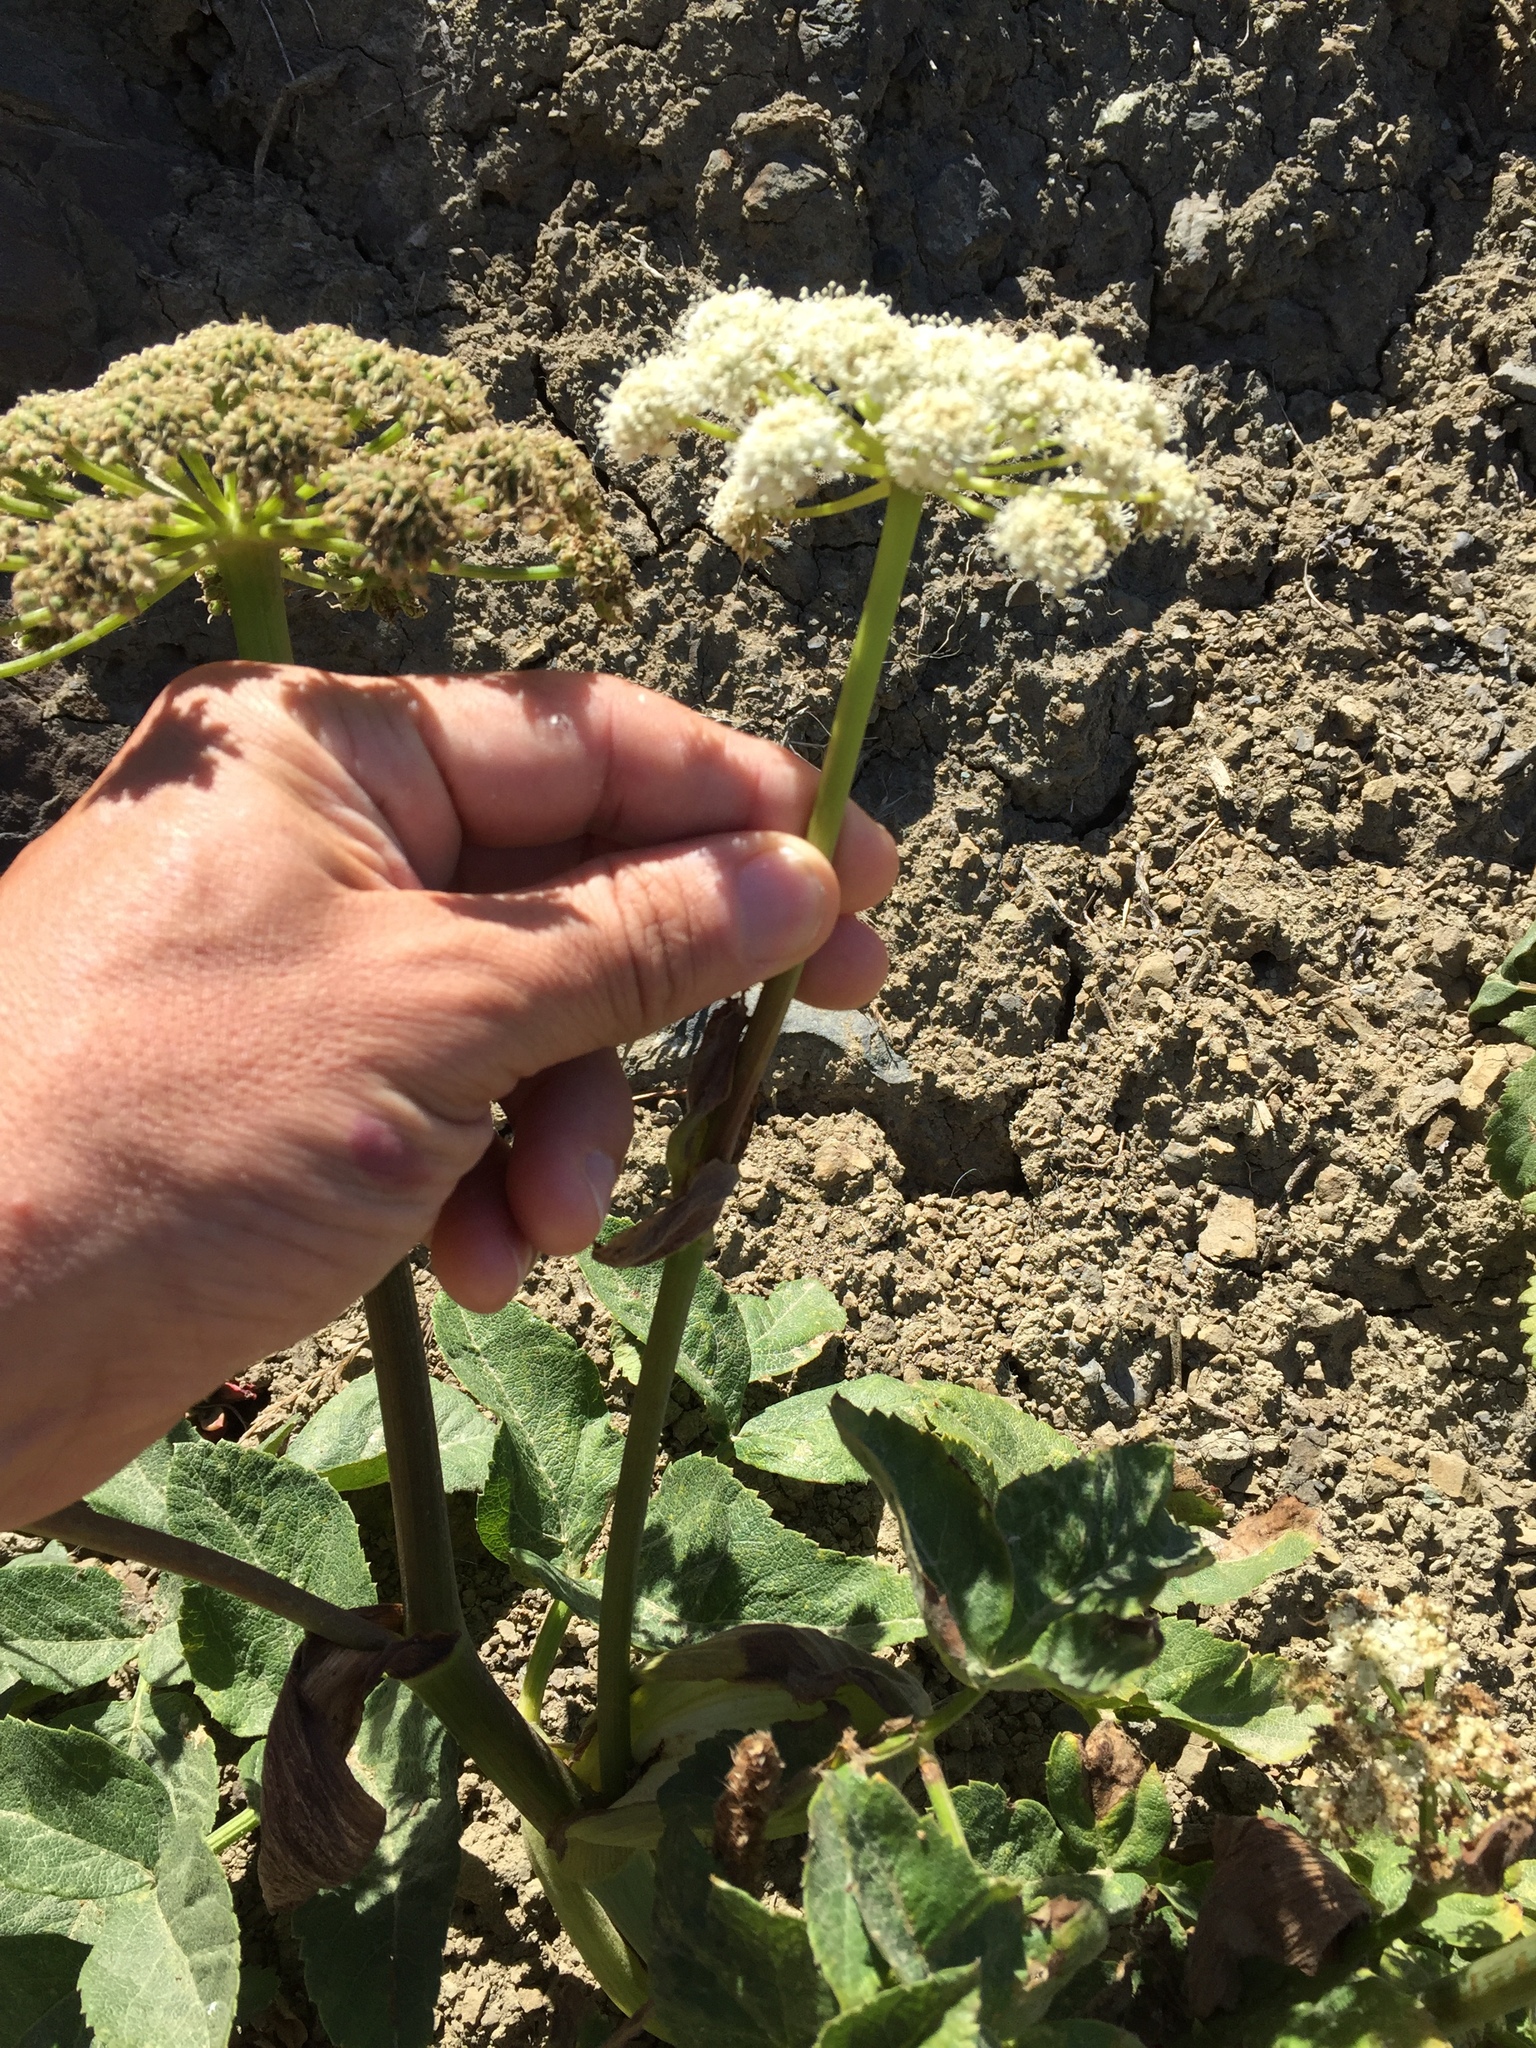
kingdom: Plantae
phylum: Tracheophyta
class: Magnoliopsida
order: Apiales
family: Apiaceae
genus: Angelica
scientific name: Angelica hendersonii
